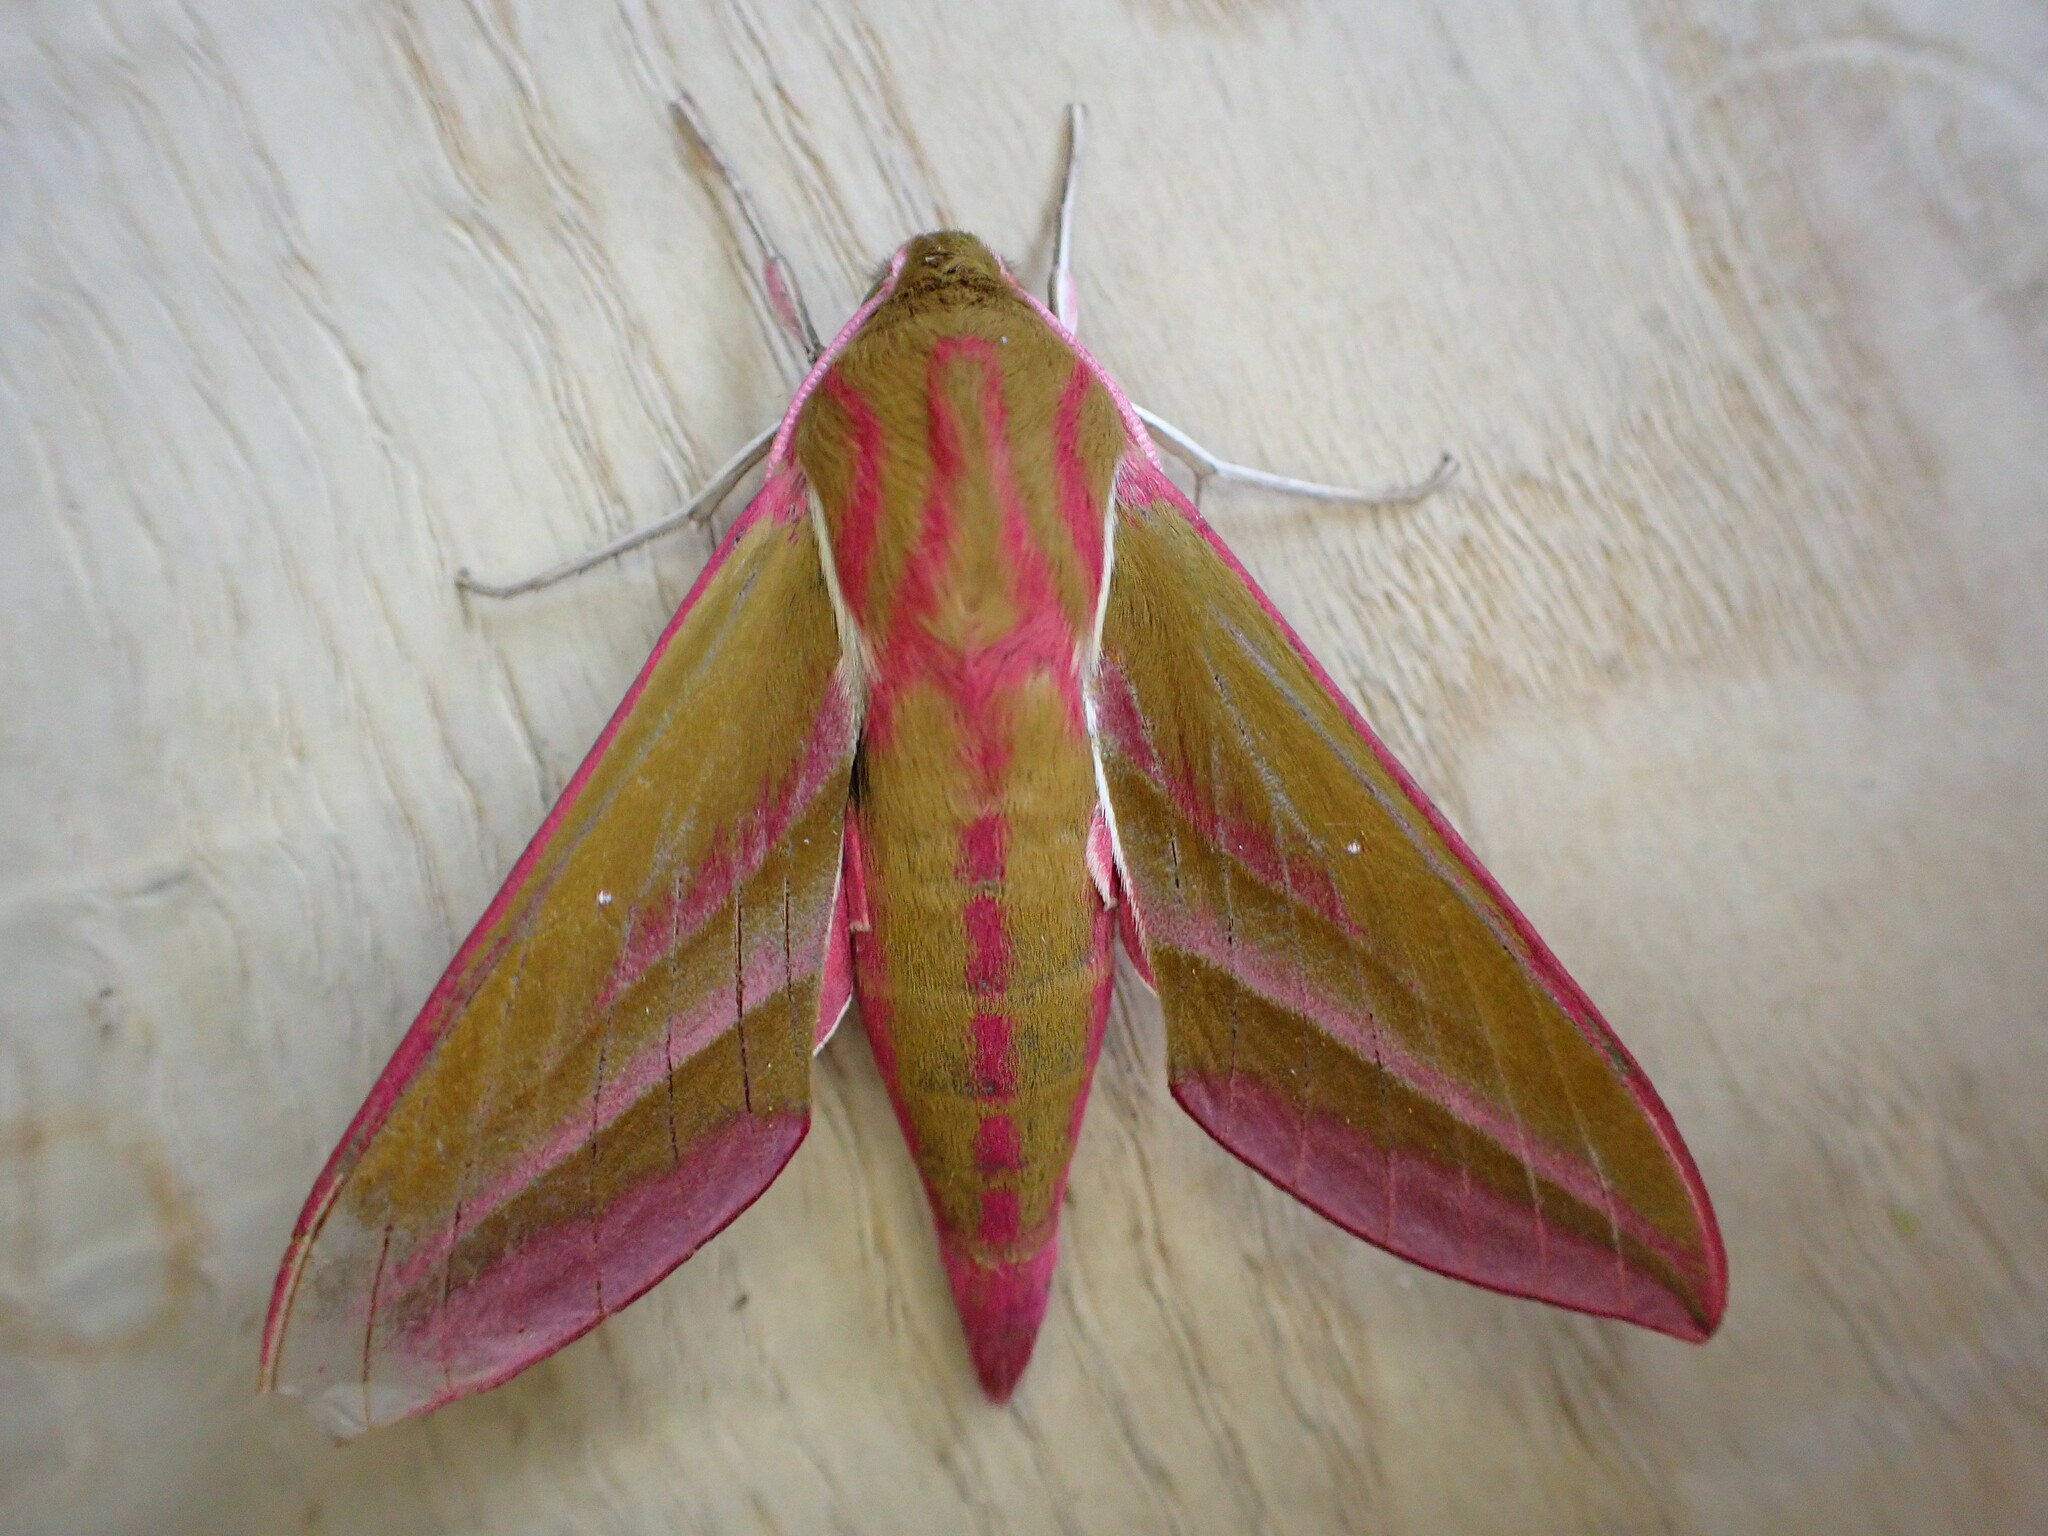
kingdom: Animalia
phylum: Arthropoda
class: Insecta
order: Lepidoptera
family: Sphingidae
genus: Deilephila
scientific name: Deilephila elpenor
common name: Elephant hawk-moth
